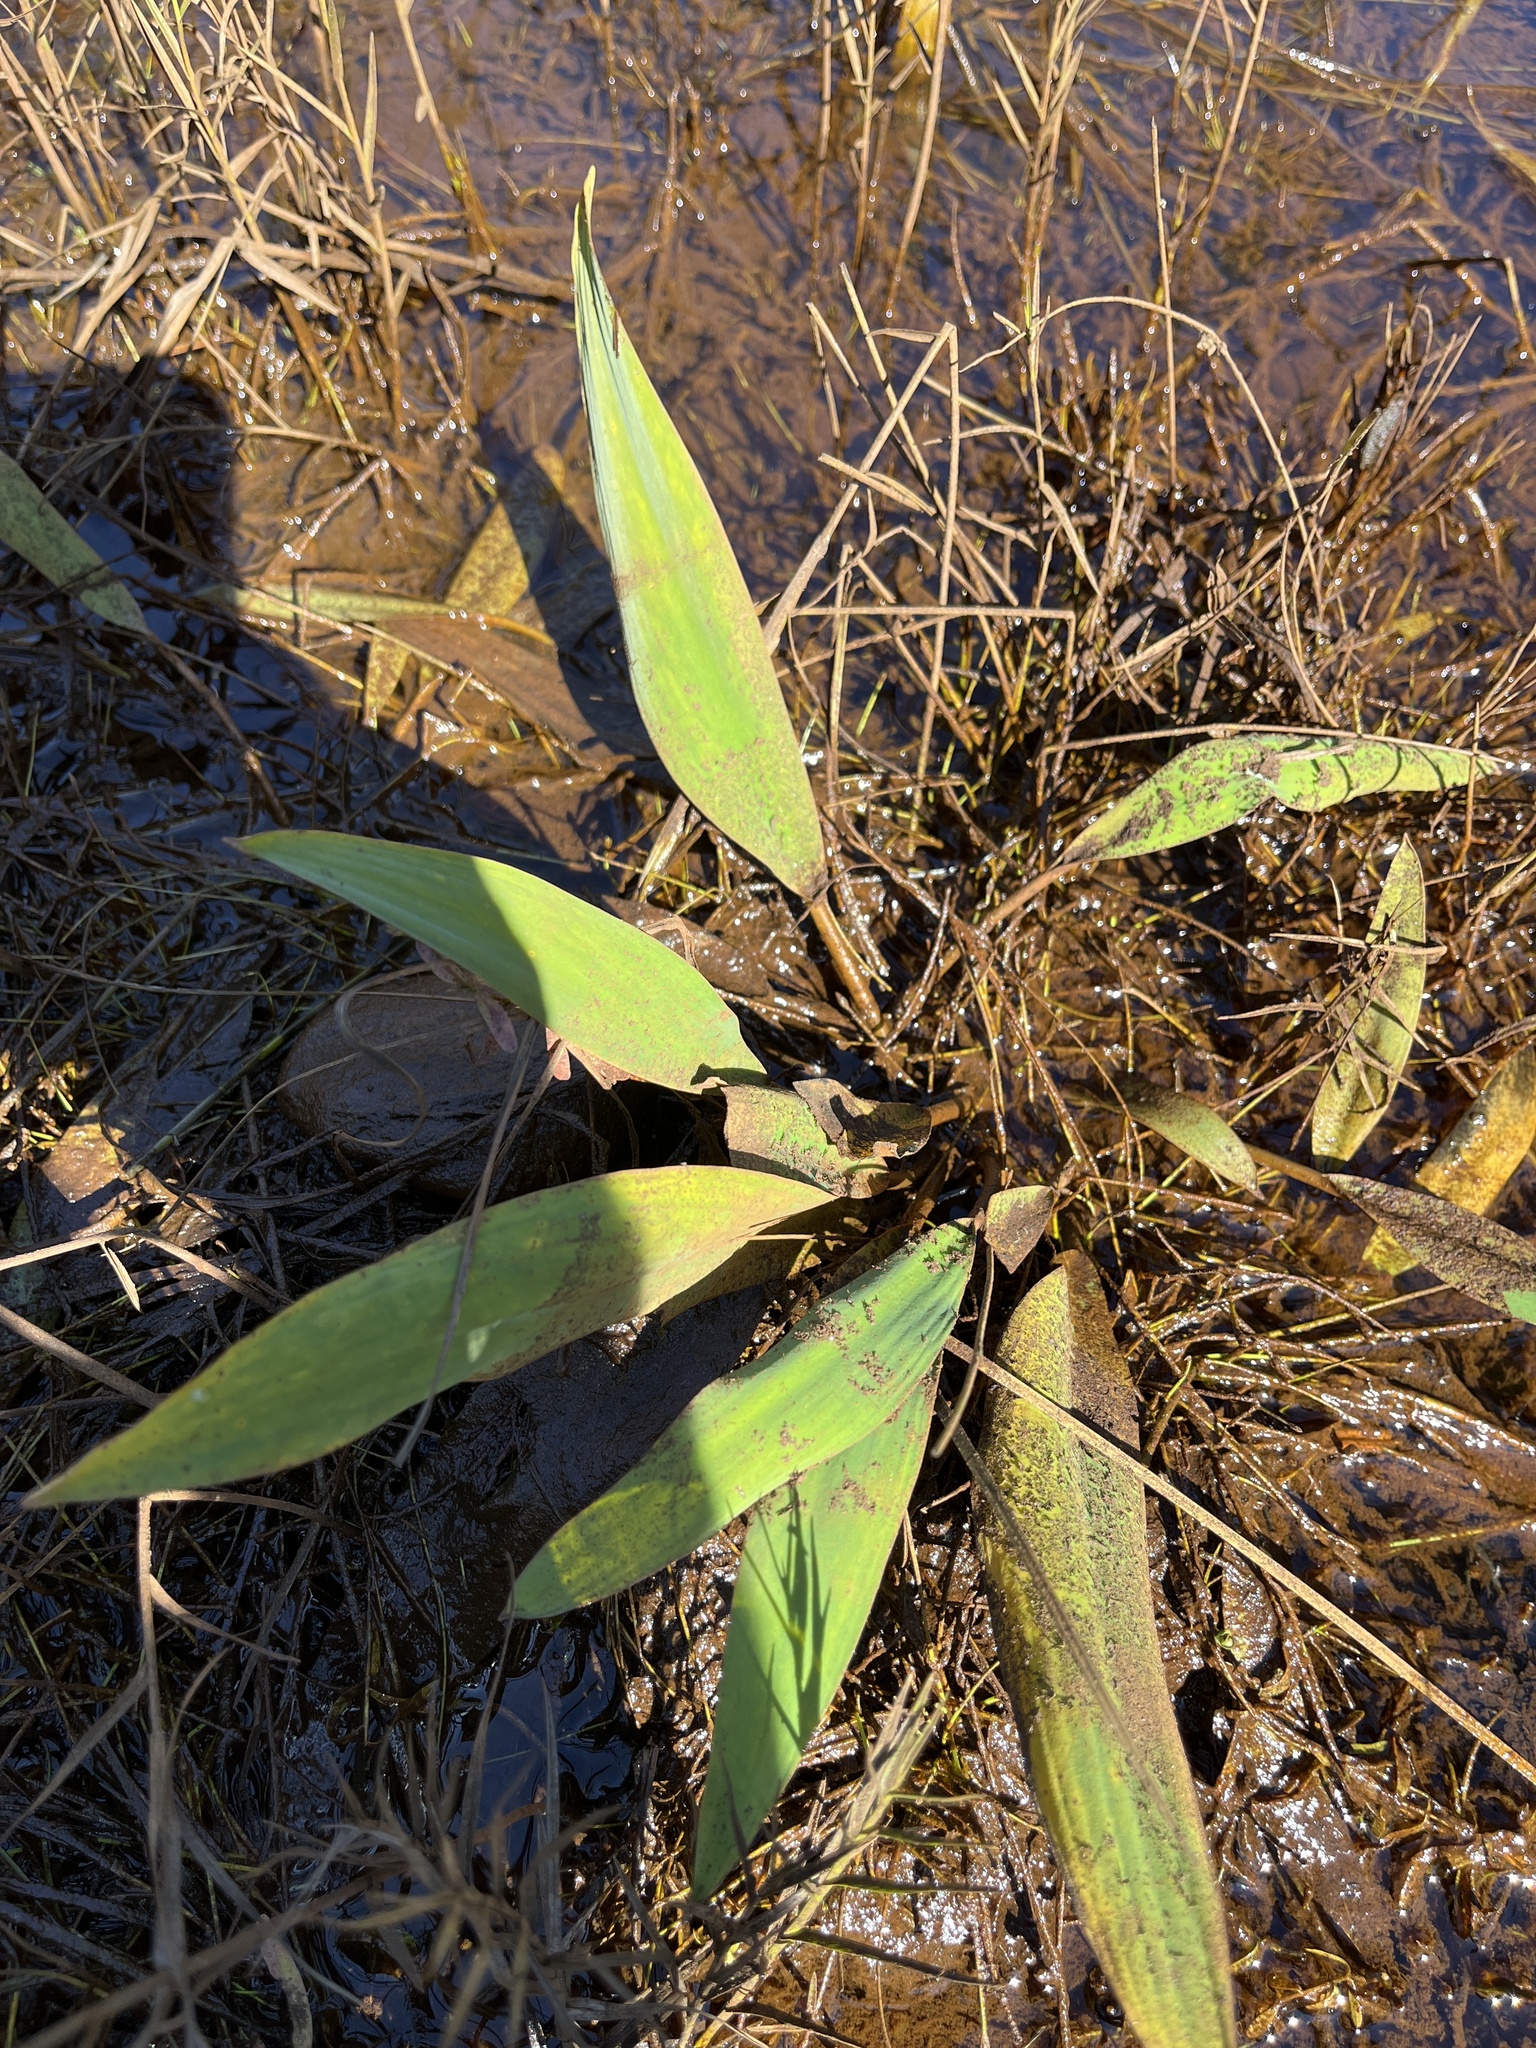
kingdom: Plantae
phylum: Tracheophyta
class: Liliopsida
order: Alismatales
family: Araceae
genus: Orontium
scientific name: Orontium aquaticum
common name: Golden-club
